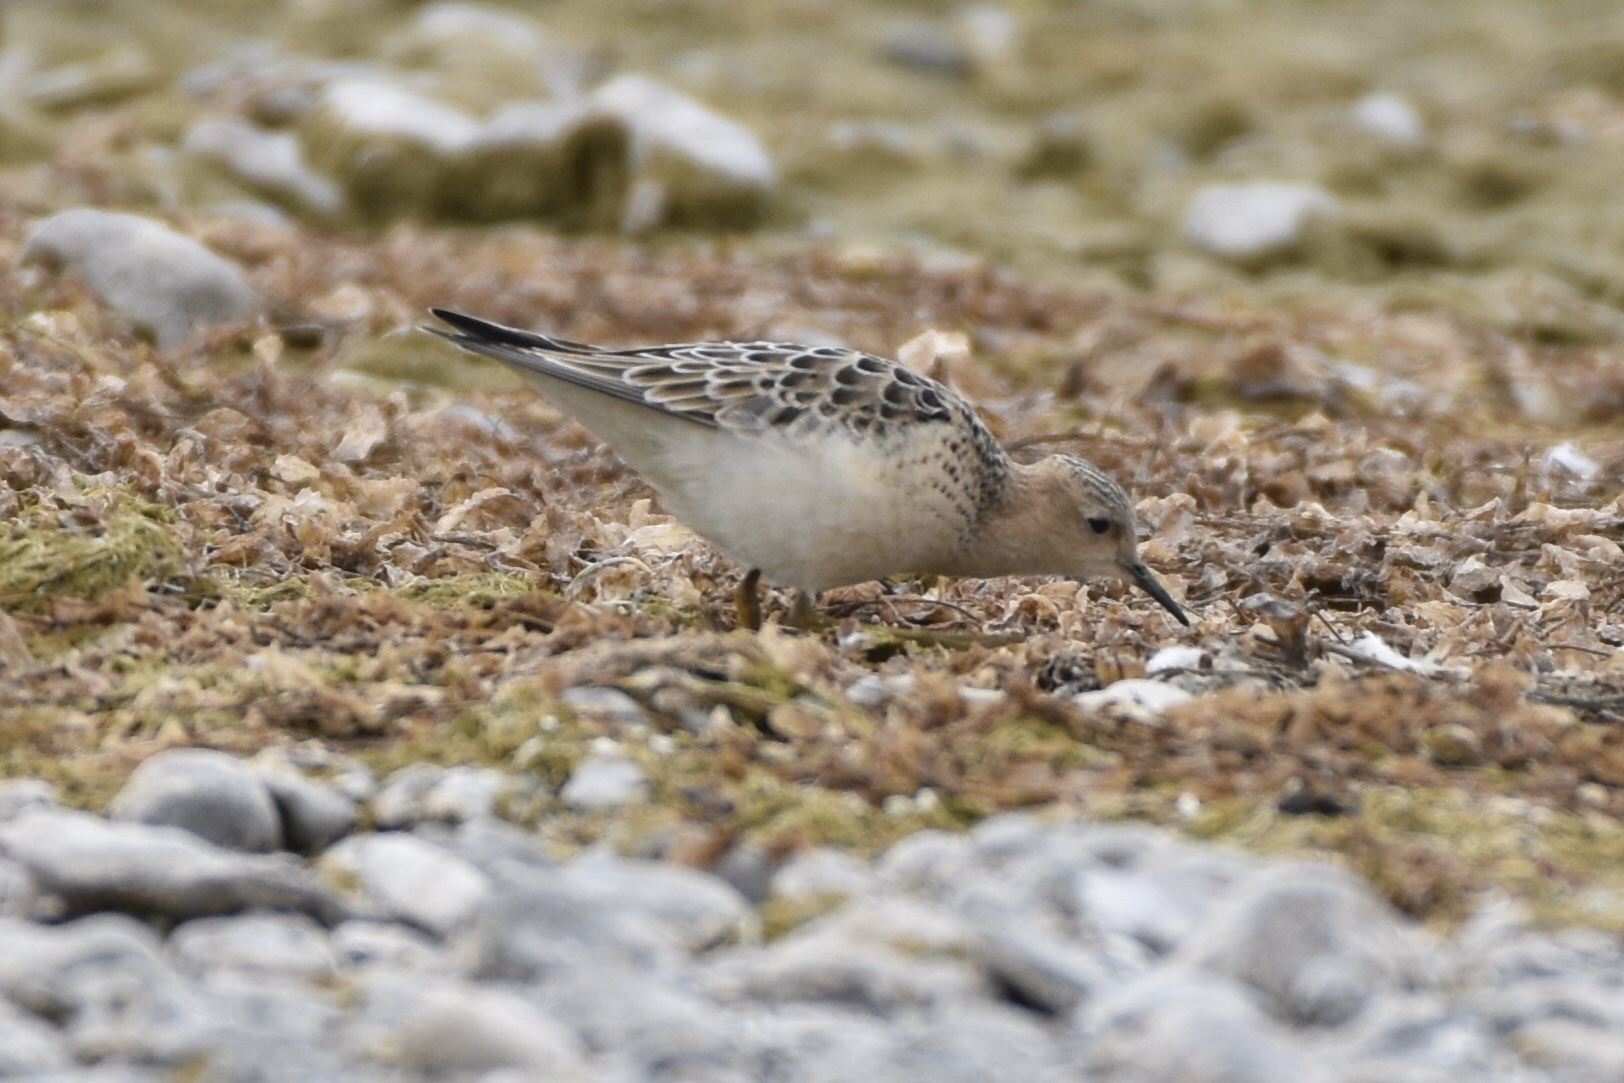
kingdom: Animalia
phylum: Chordata
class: Aves
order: Charadriiformes
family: Scolopacidae
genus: Calidris
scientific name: Calidris subruficollis
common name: Buff-breasted sandpiper
